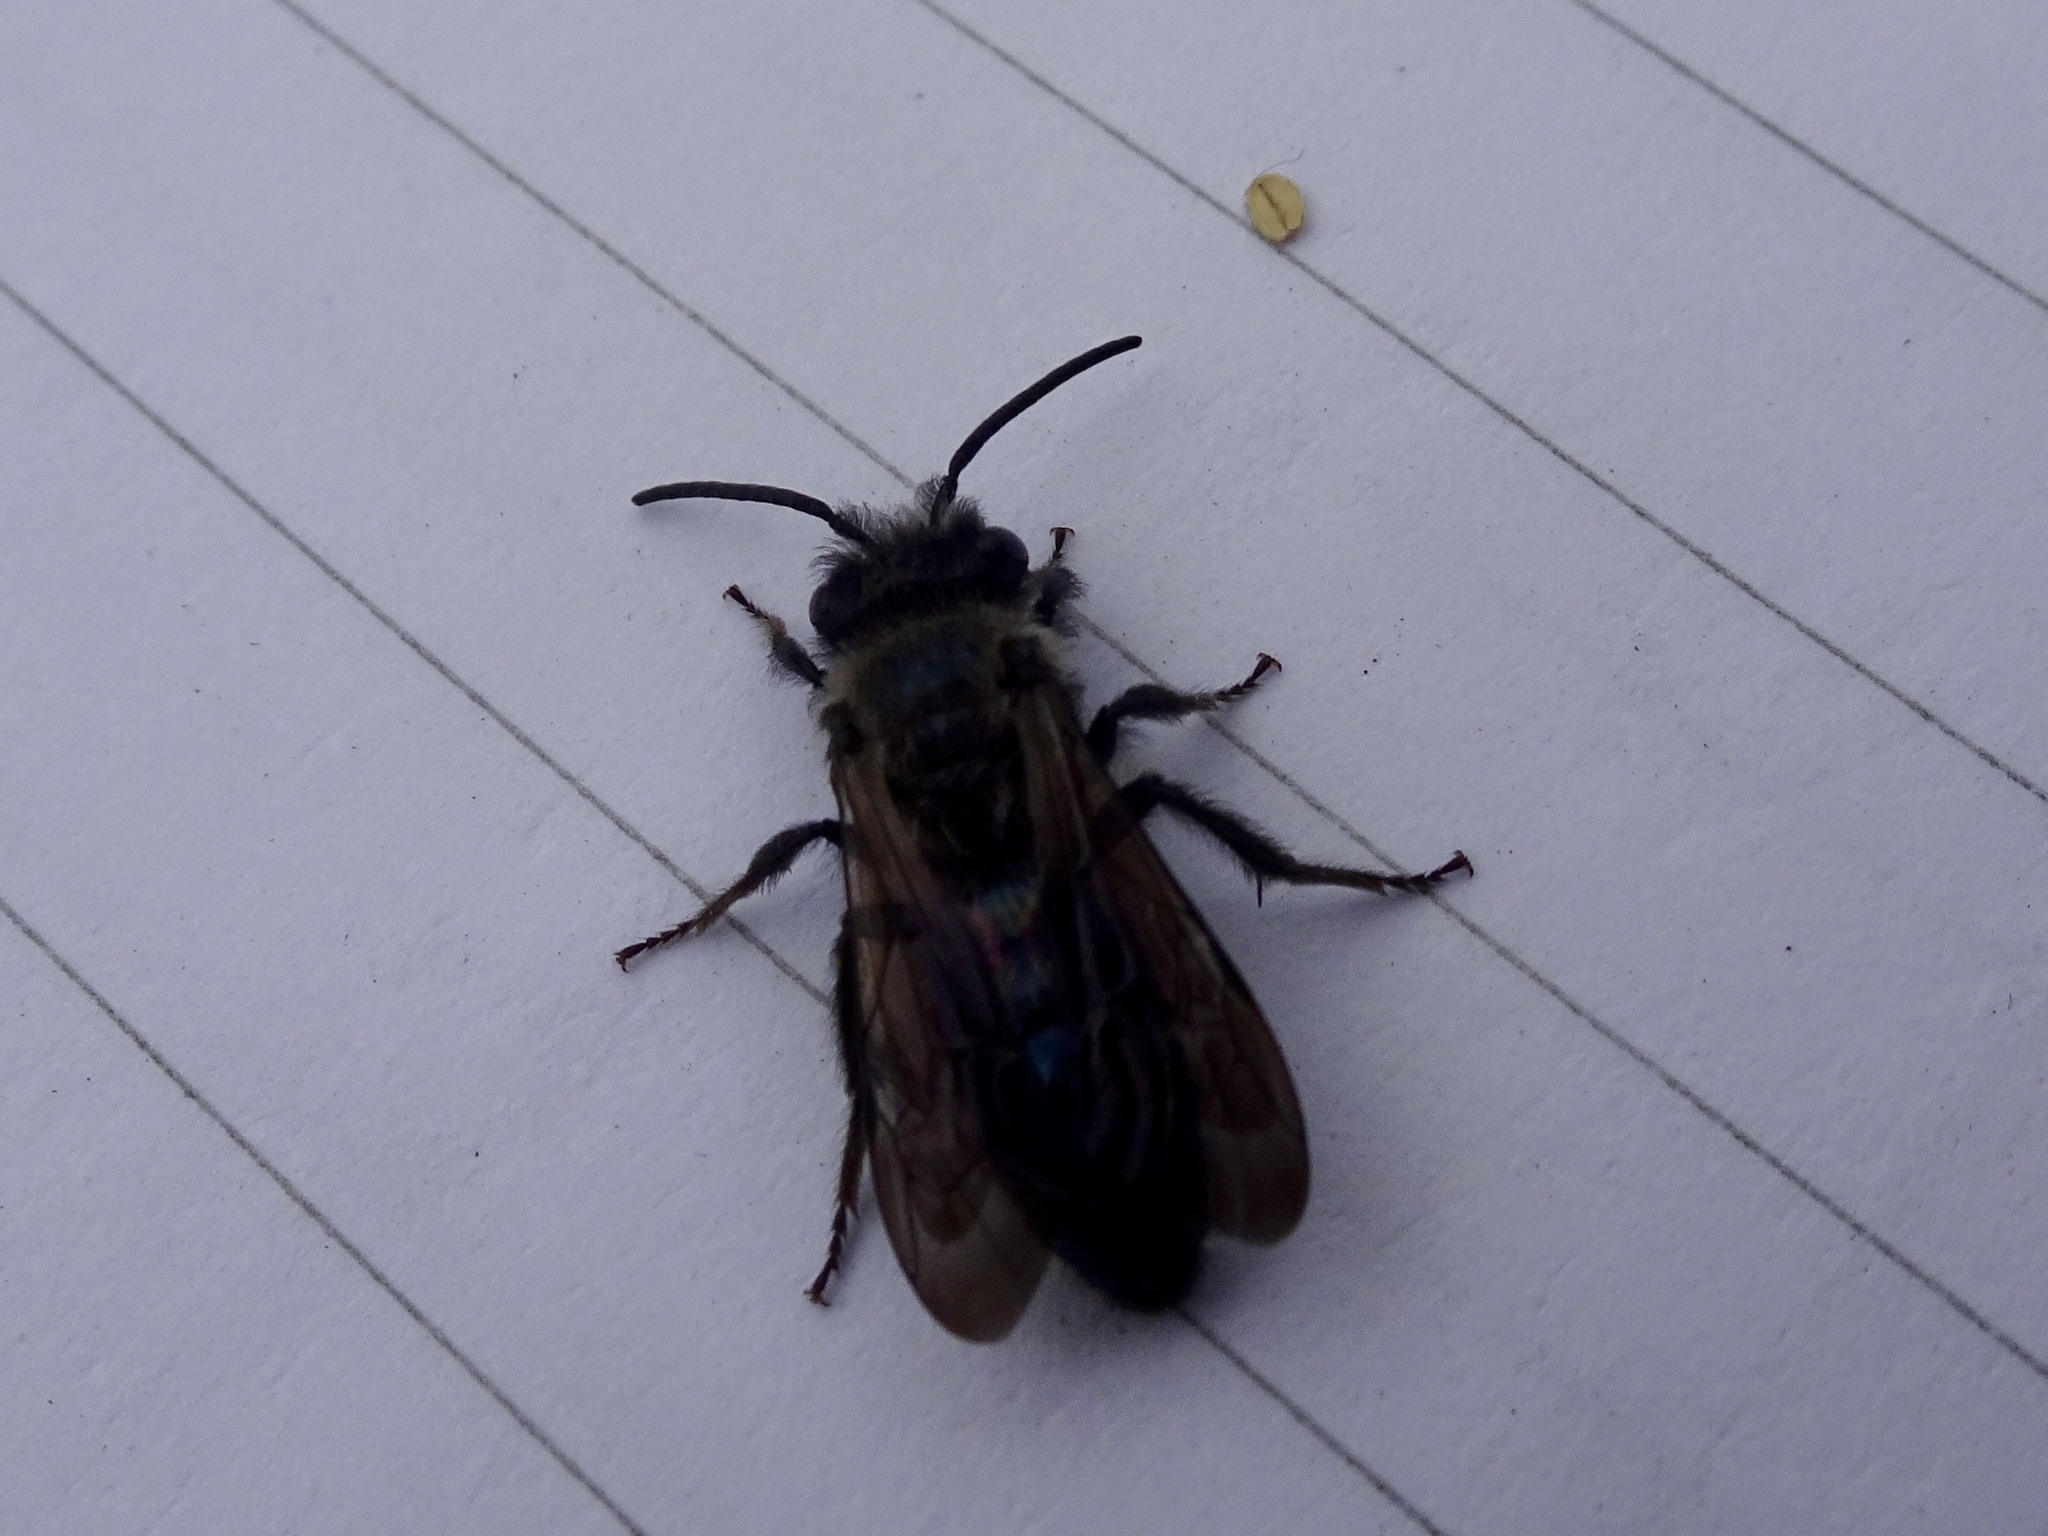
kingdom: Animalia
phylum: Arthropoda
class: Insecta
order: Hymenoptera
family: Andrenidae
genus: Andrena
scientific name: Andrena cerasifolii
